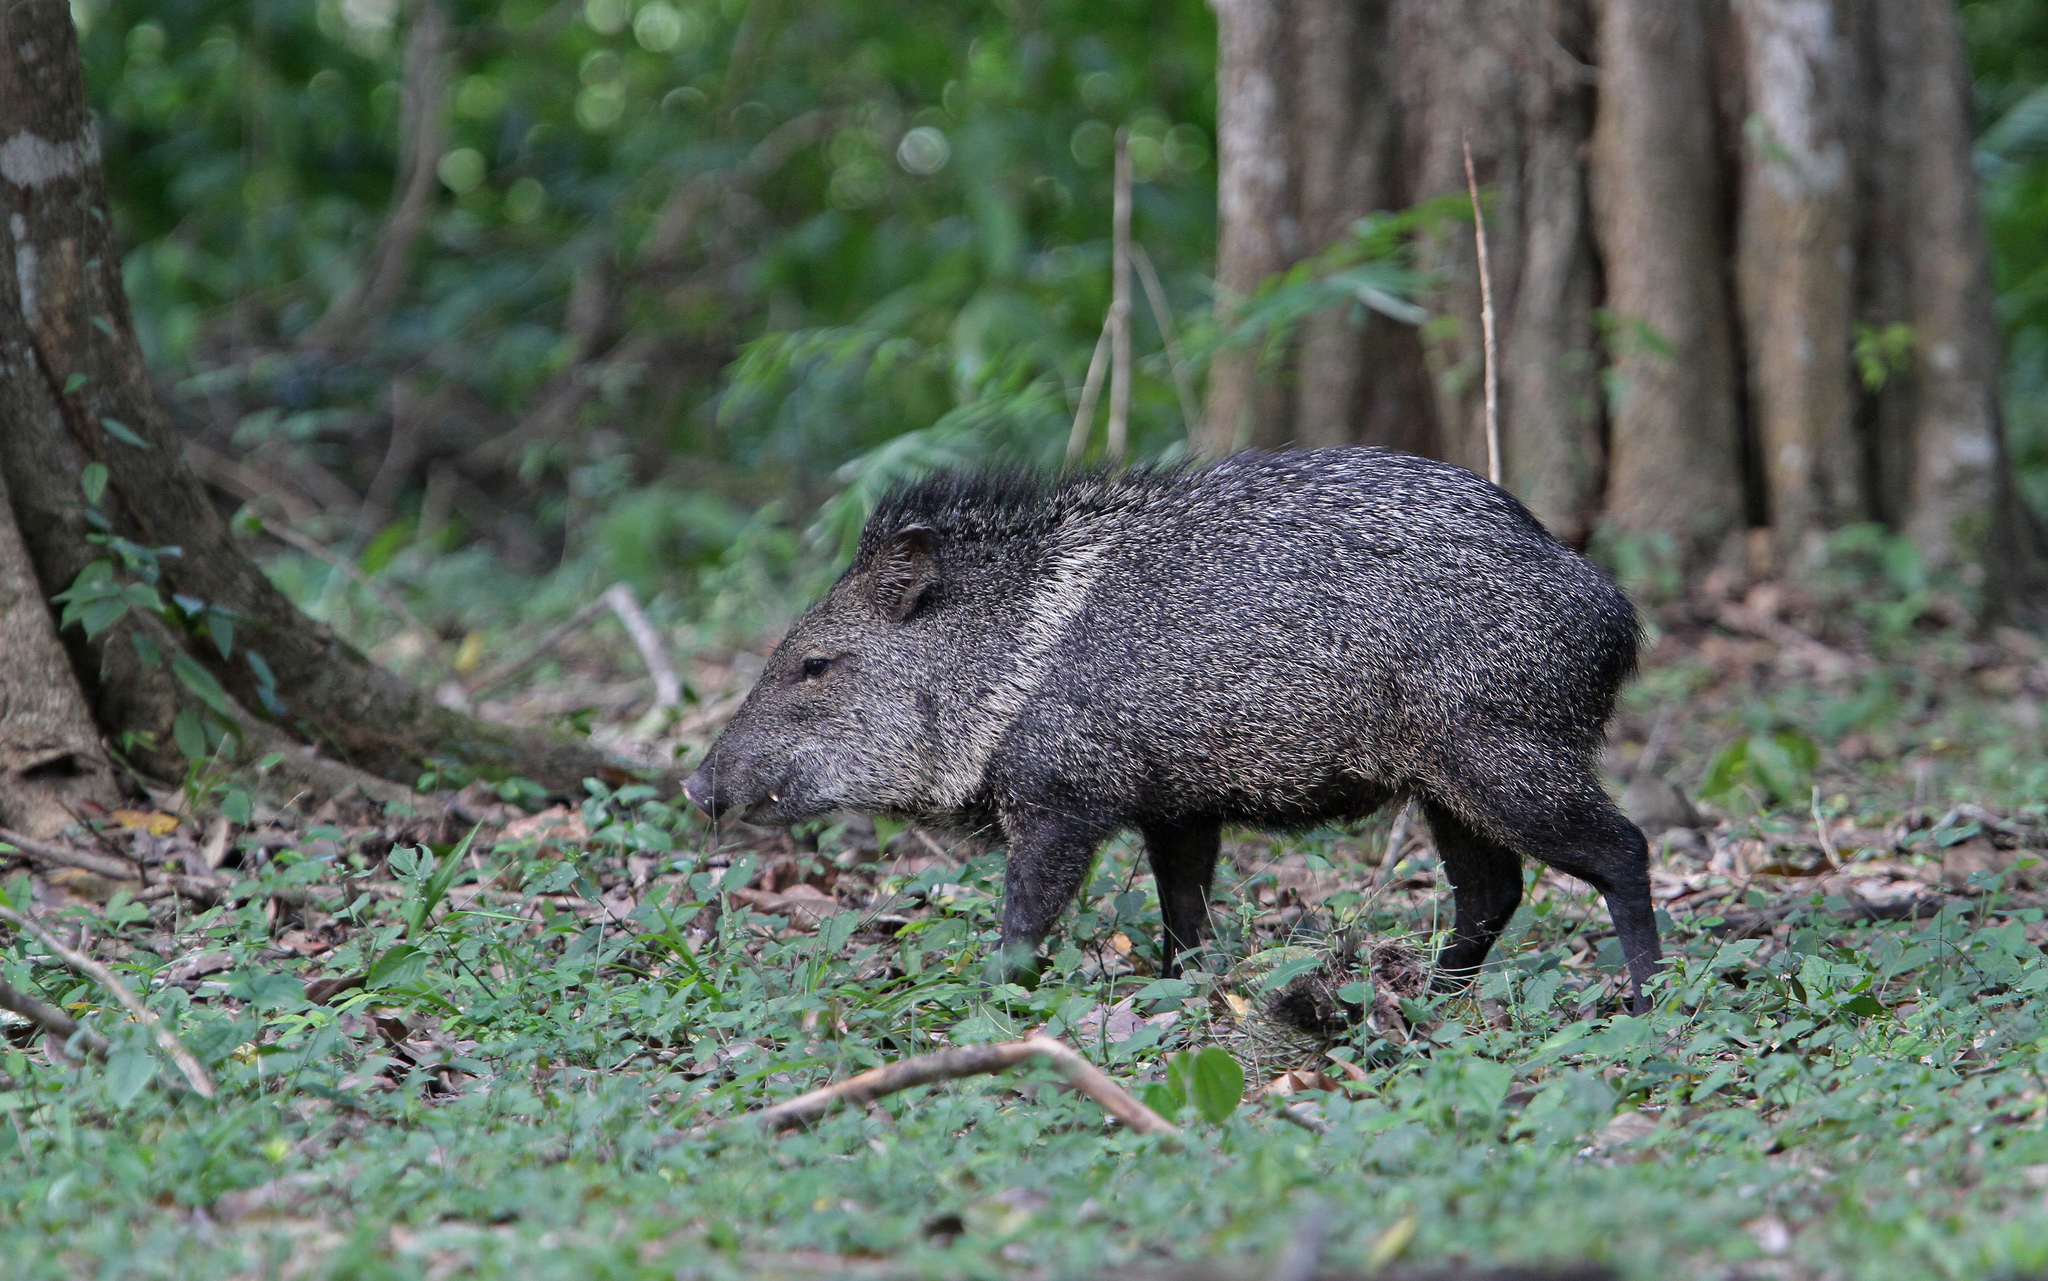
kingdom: Animalia
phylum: Chordata
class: Mammalia
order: Artiodactyla
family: Tayassuidae
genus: Pecari
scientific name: Pecari tajacu
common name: Collared peccary
